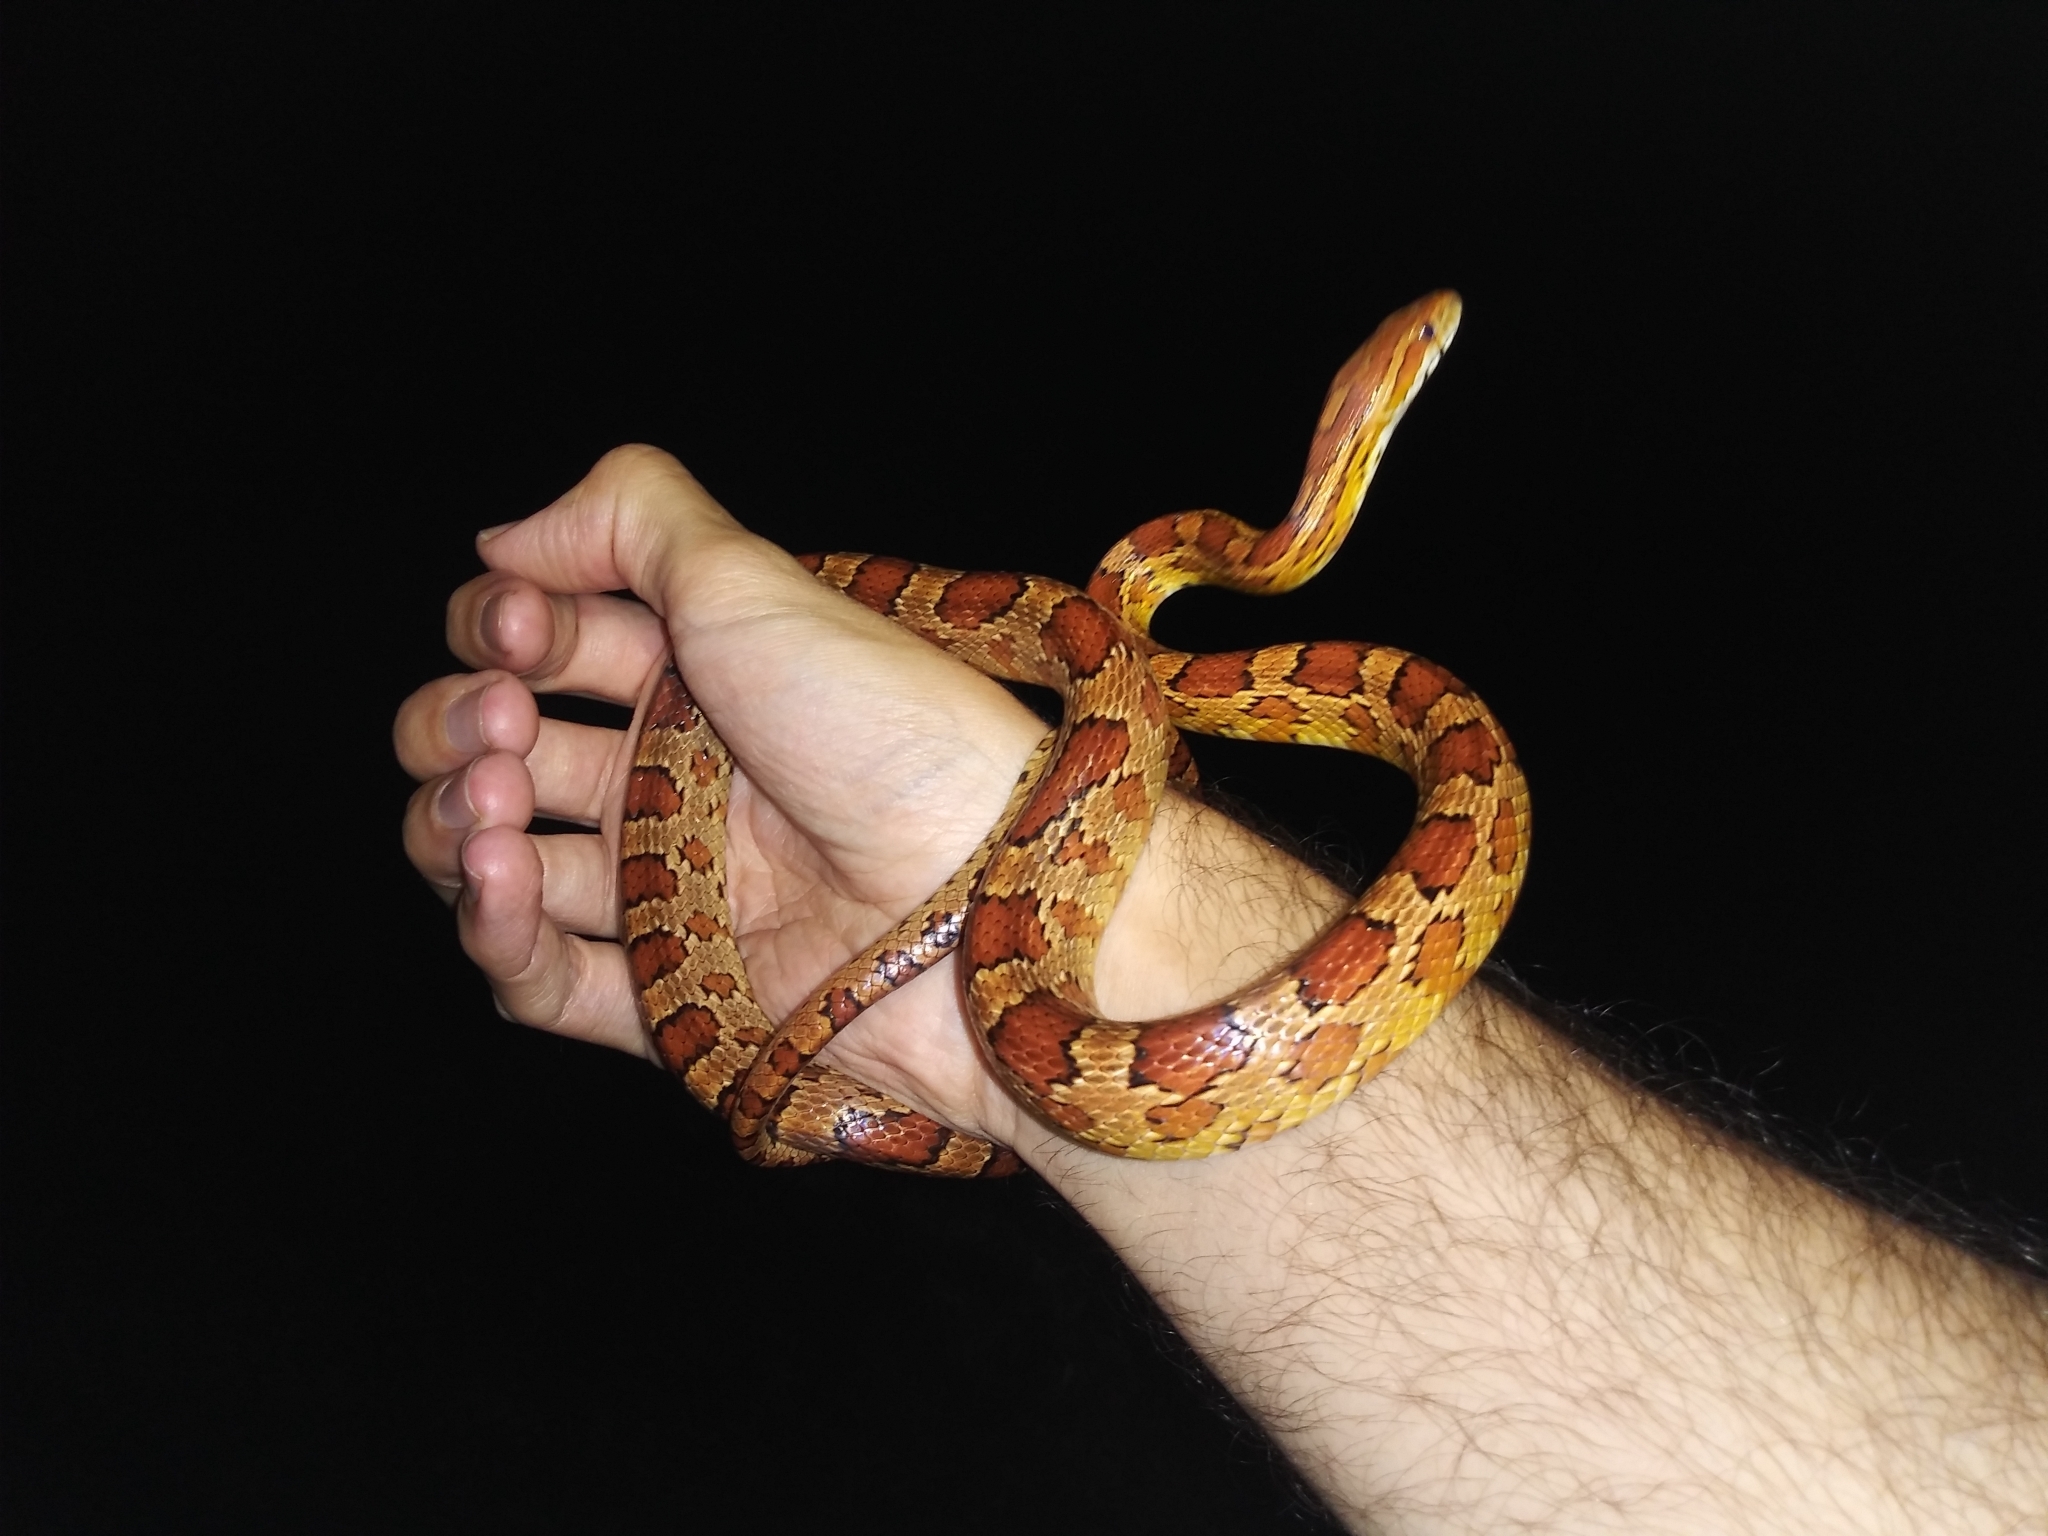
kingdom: Animalia
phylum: Chordata
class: Squamata
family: Colubridae
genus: Pantherophis
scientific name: Pantherophis guttatus
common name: Red cornsnake
